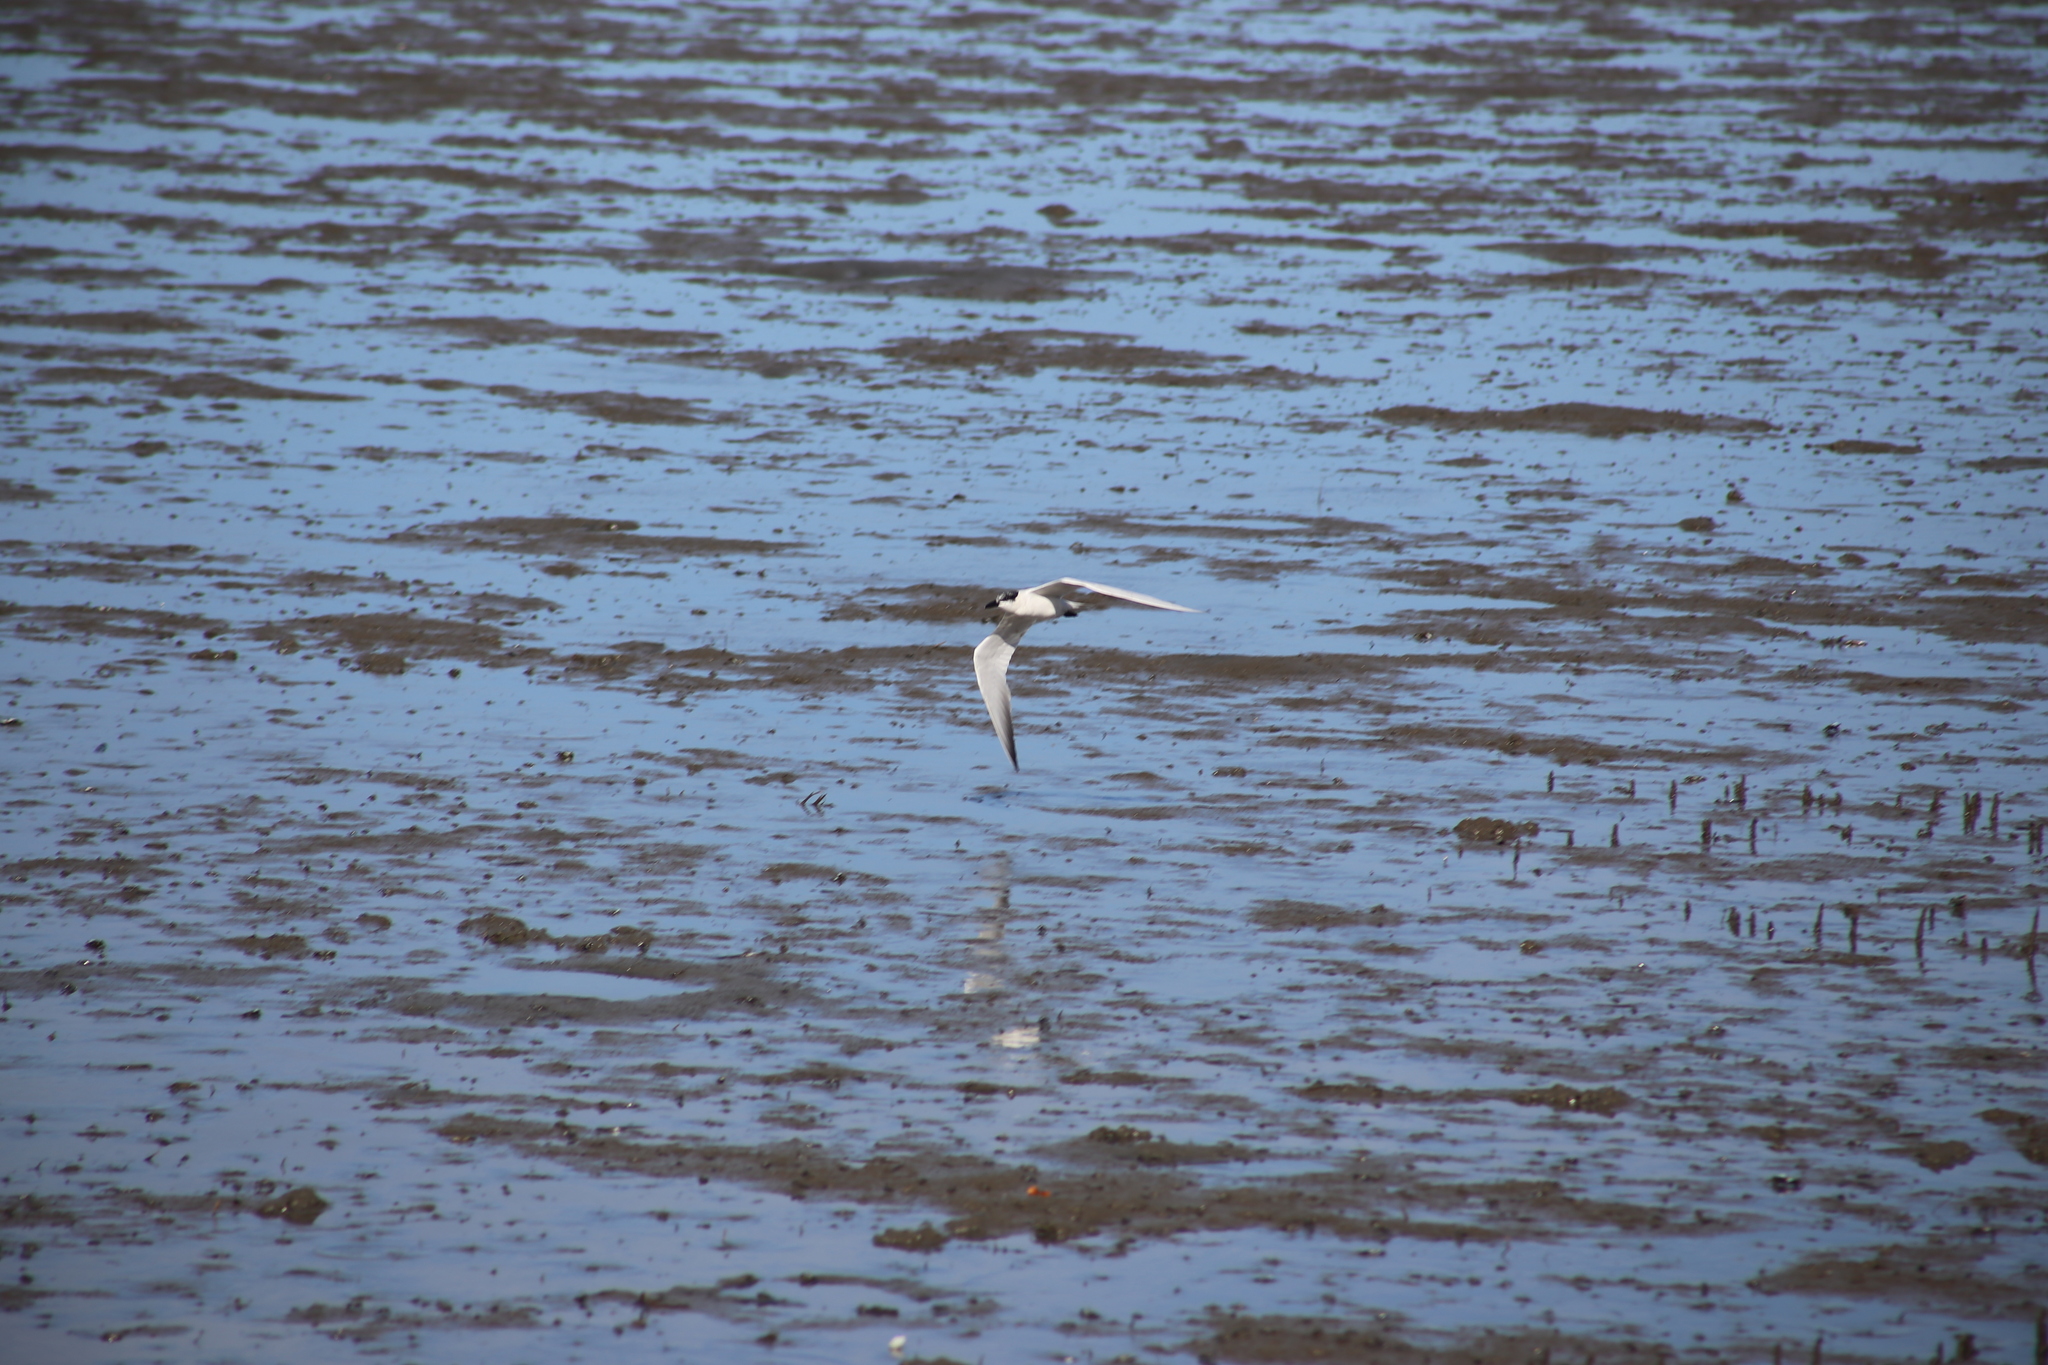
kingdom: Animalia
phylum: Chordata
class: Aves
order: Charadriiformes
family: Laridae
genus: Gelochelidon
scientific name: Gelochelidon macrotarsa
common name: Australian tern
